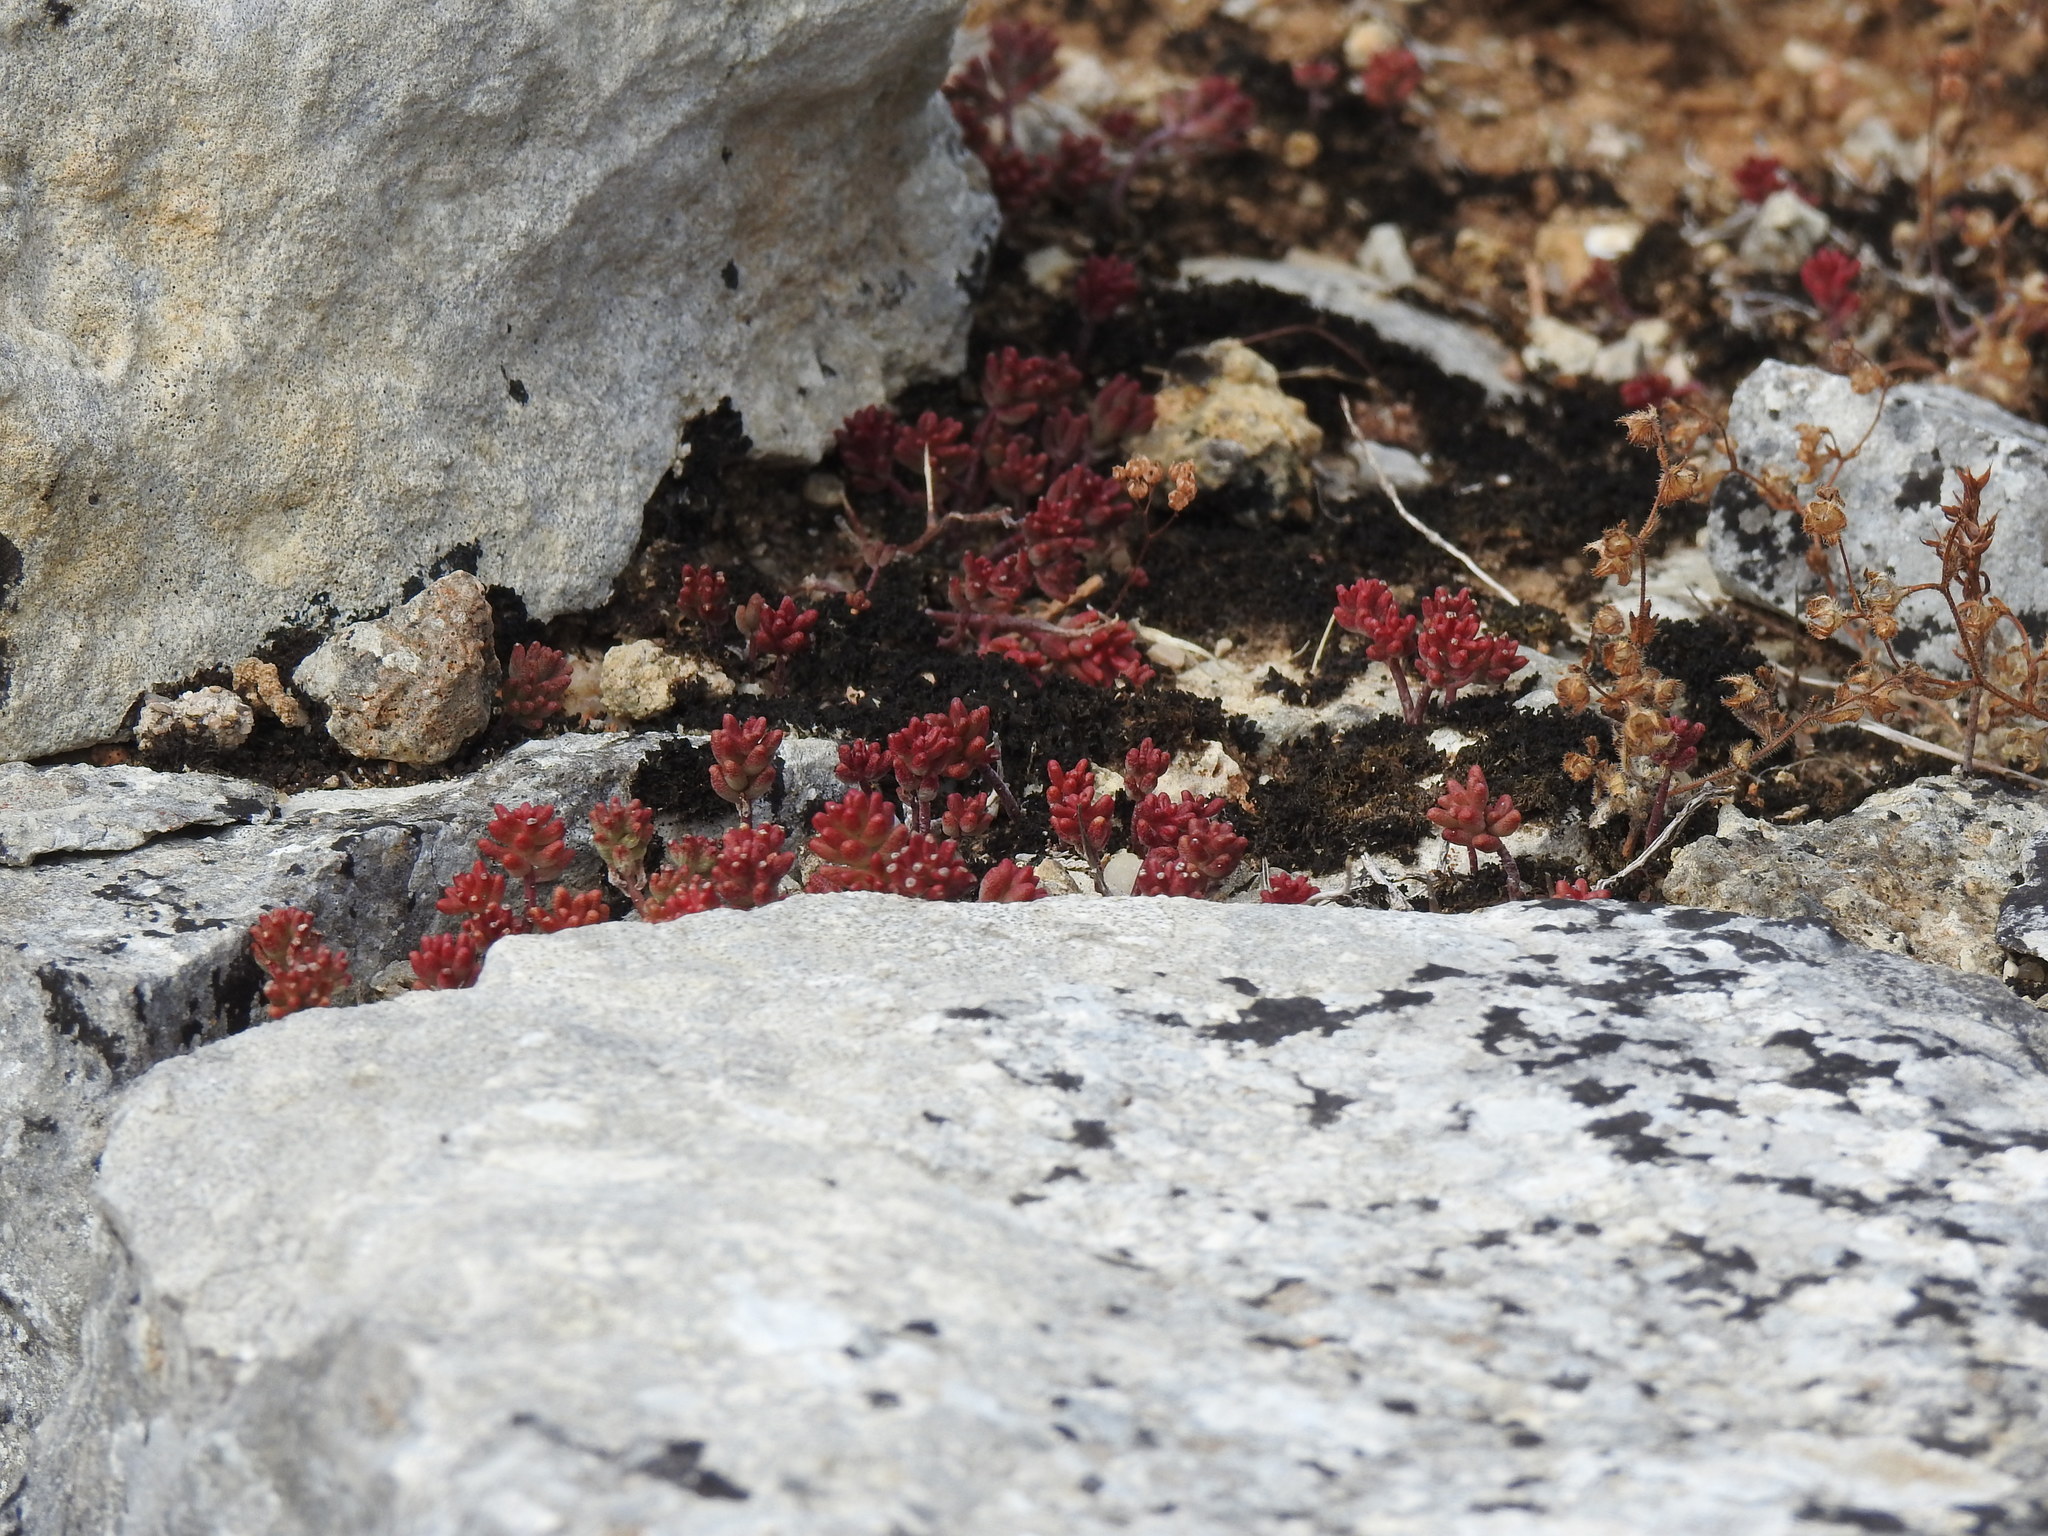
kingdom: Plantae
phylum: Tracheophyta
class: Magnoliopsida
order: Saxifragales
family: Crassulaceae
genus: Sedum
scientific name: Sedum album
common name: White stonecrop
